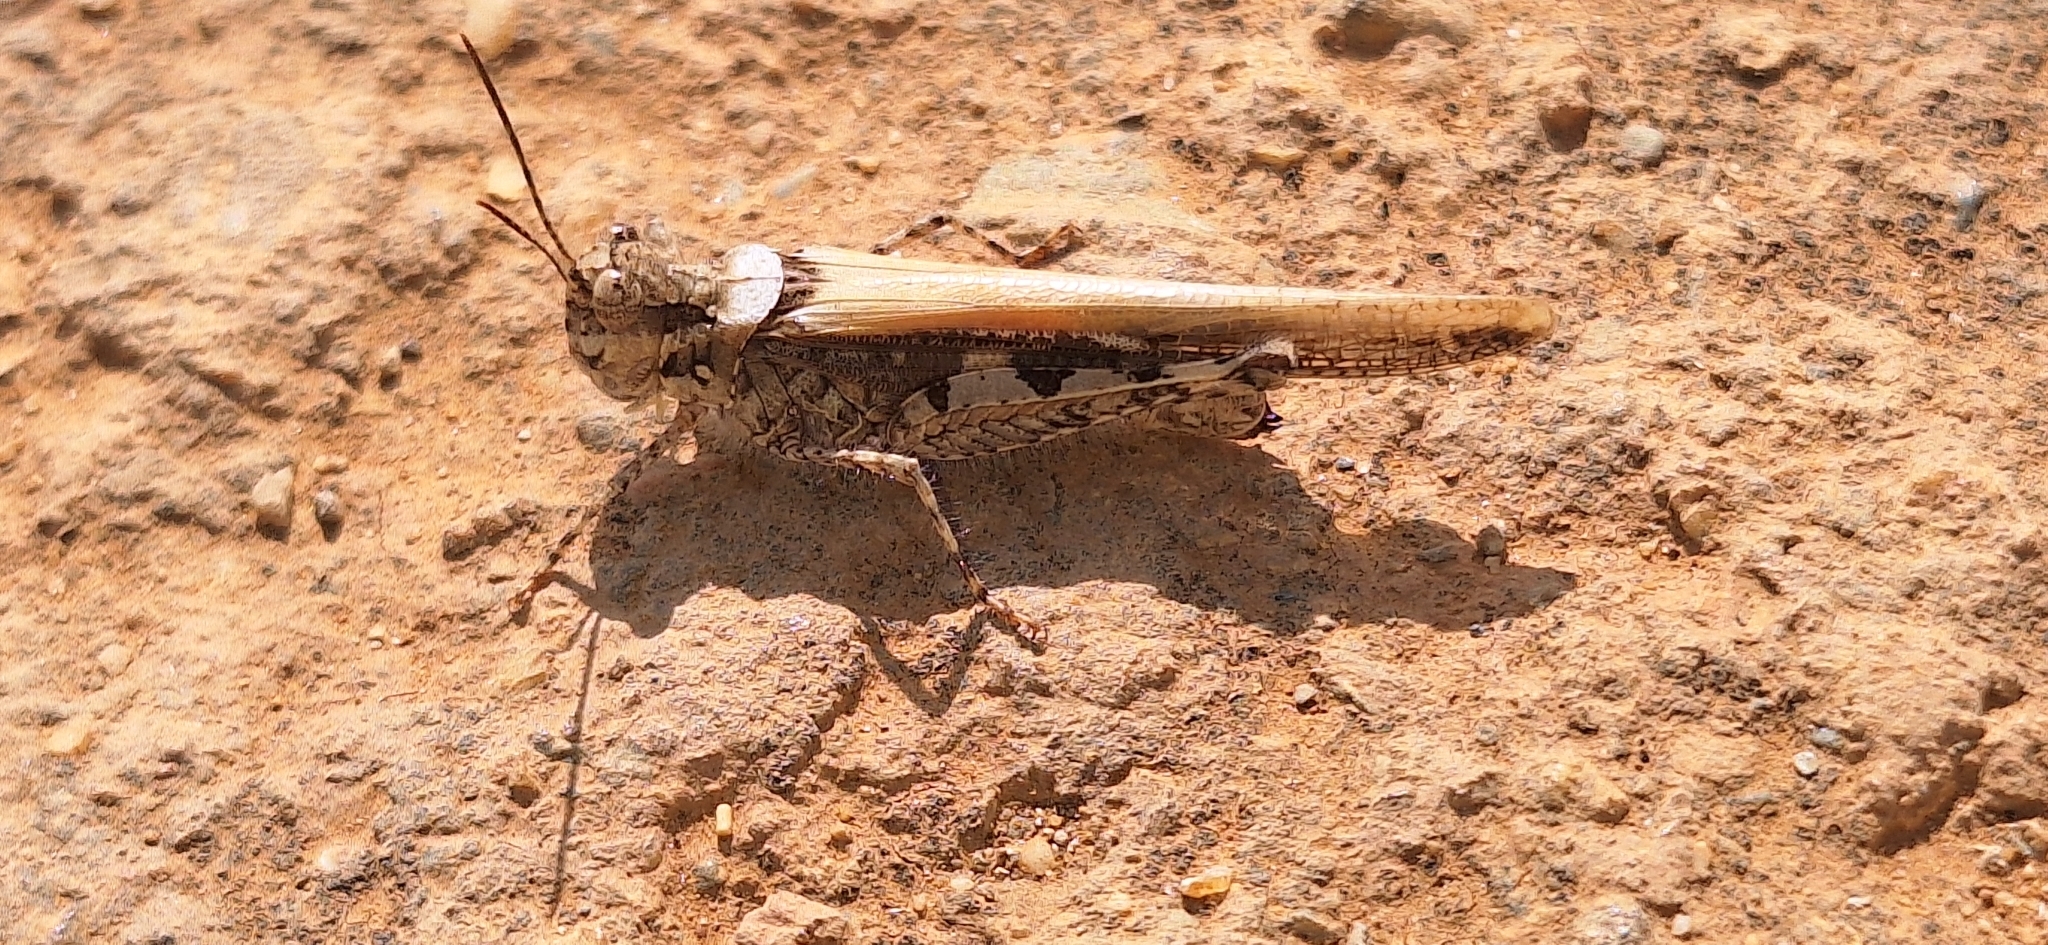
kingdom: Animalia
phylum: Arthropoda
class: Insecta
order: Orthoptera
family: Acrididae
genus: Acrotylus
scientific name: Acrotylus patruelis
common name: Slender burrowing grasshopper
